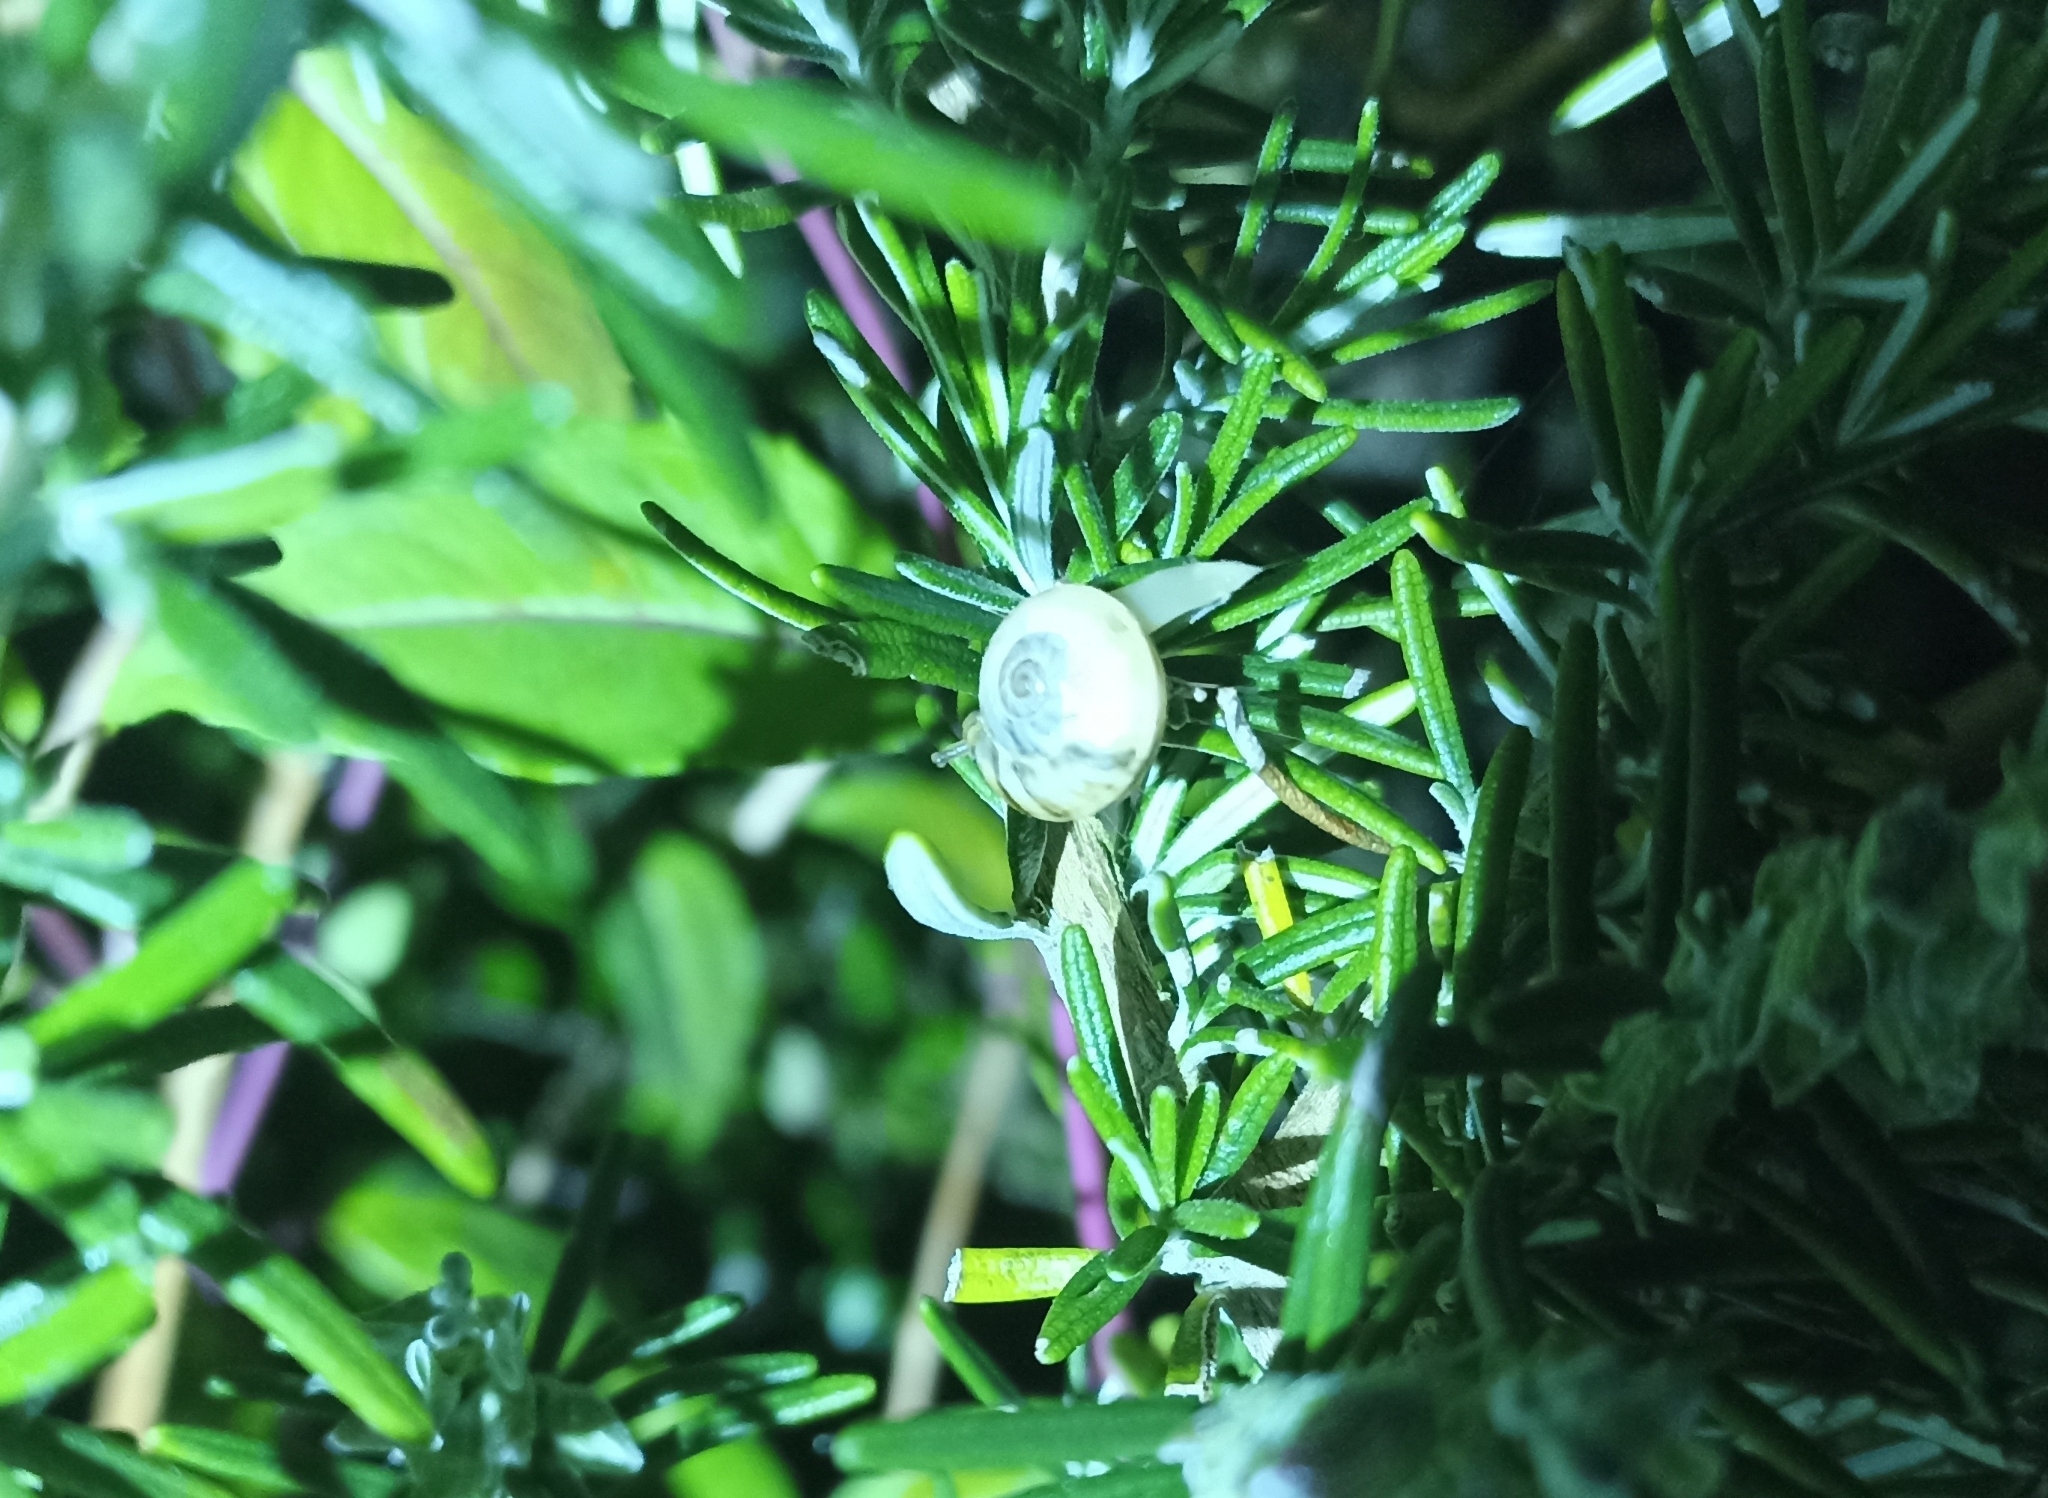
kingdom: Animalia
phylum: Mollusca
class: Gastropoda
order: Stylommatophora
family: Helicidae
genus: Theba
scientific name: Theba pisana
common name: White snail
